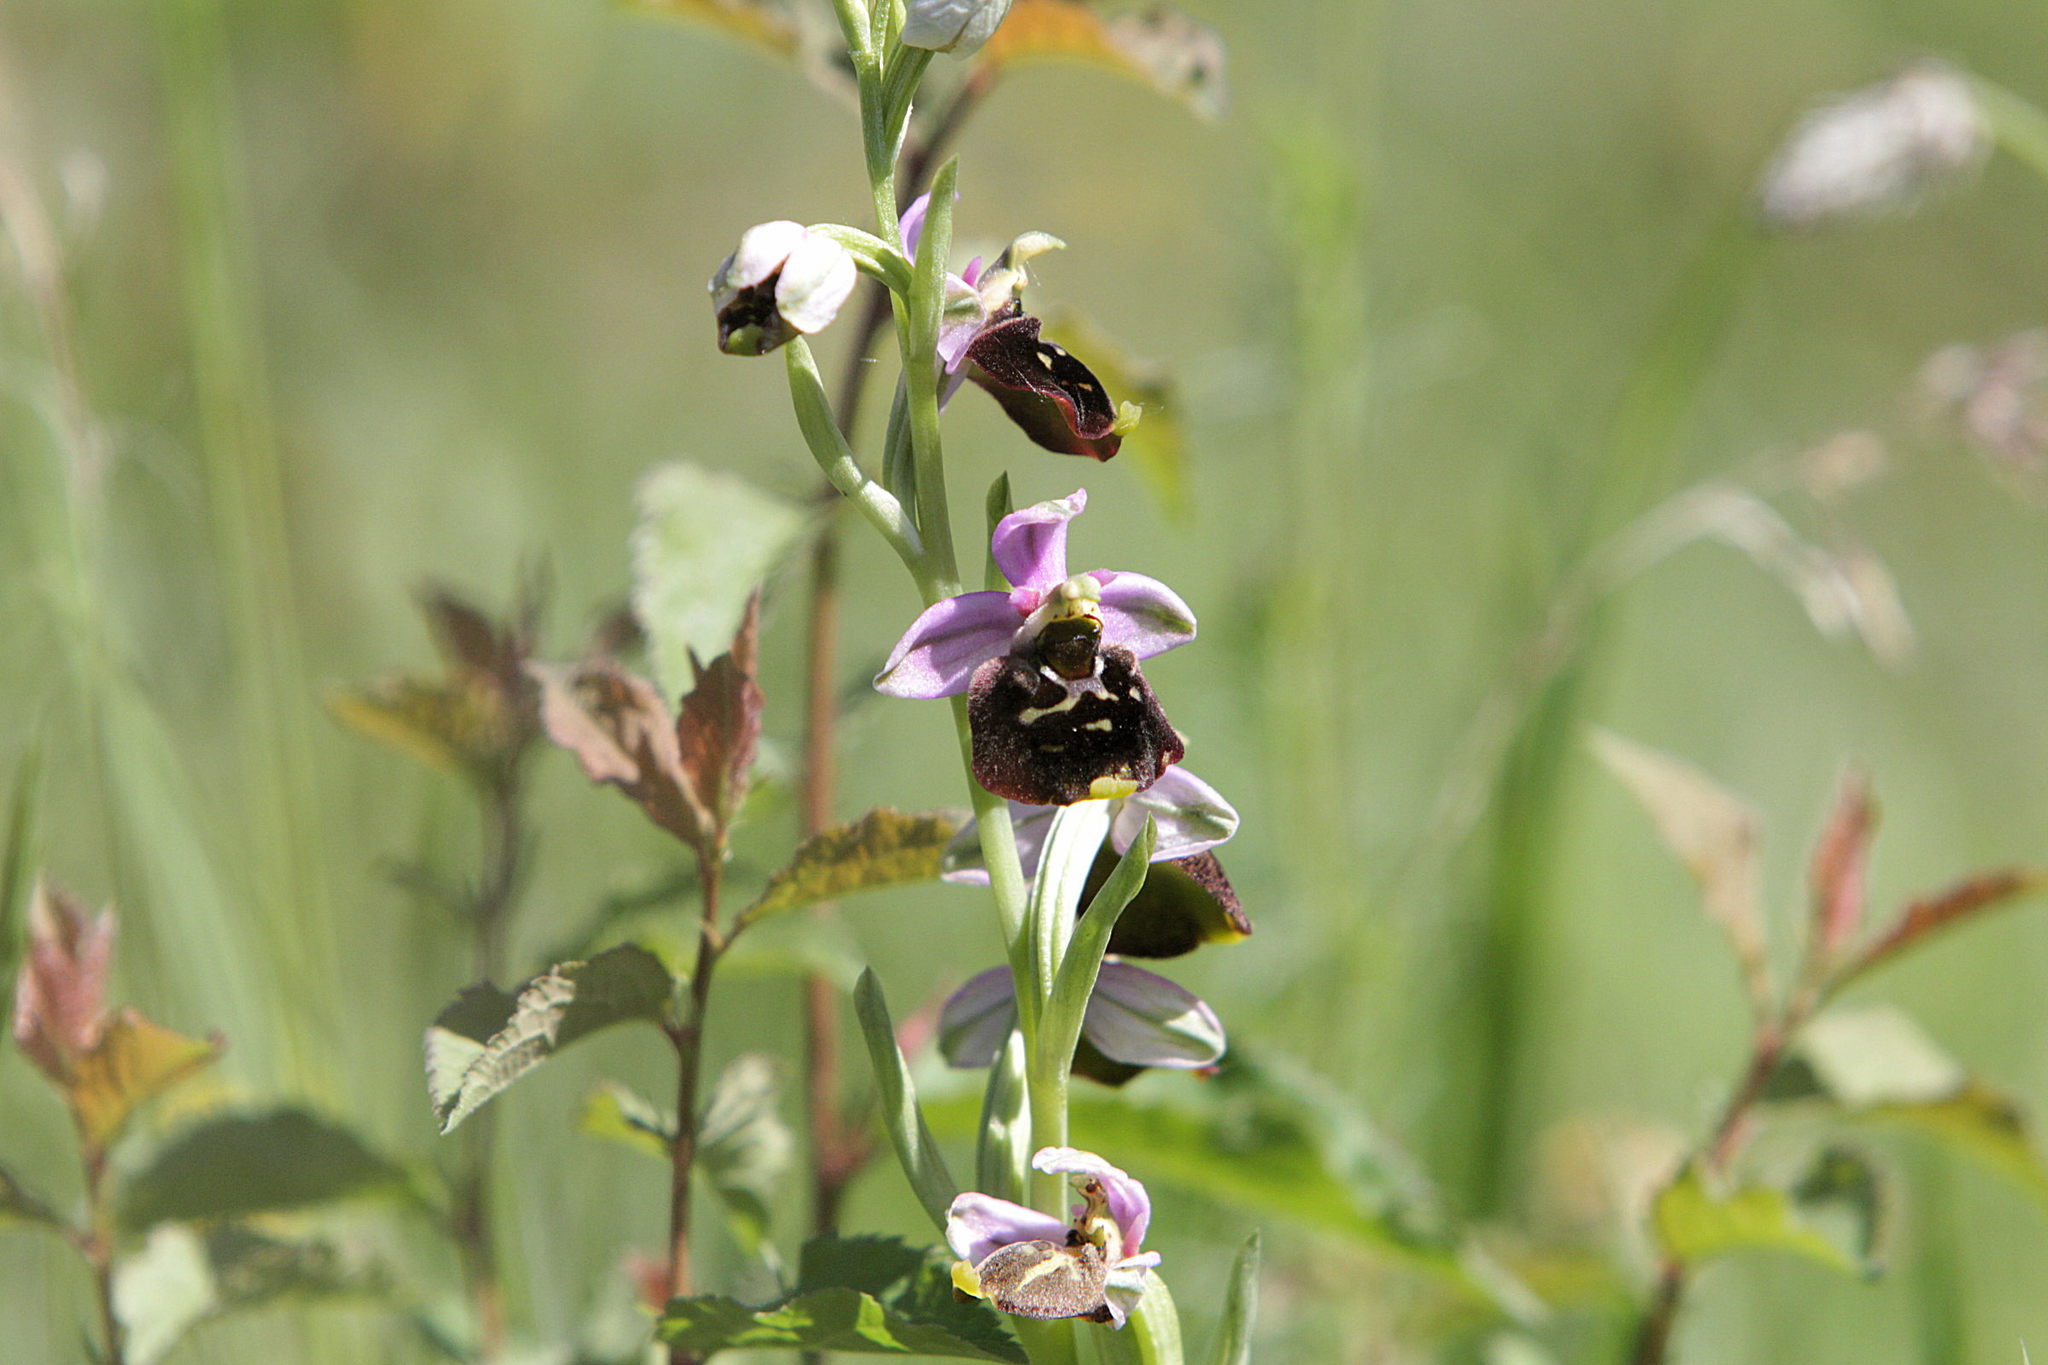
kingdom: Plantae
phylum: Tracheophyta
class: Liliopsida
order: Asparagales
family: Orchidaceae
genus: Ophrys
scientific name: Ophrys holosericea
